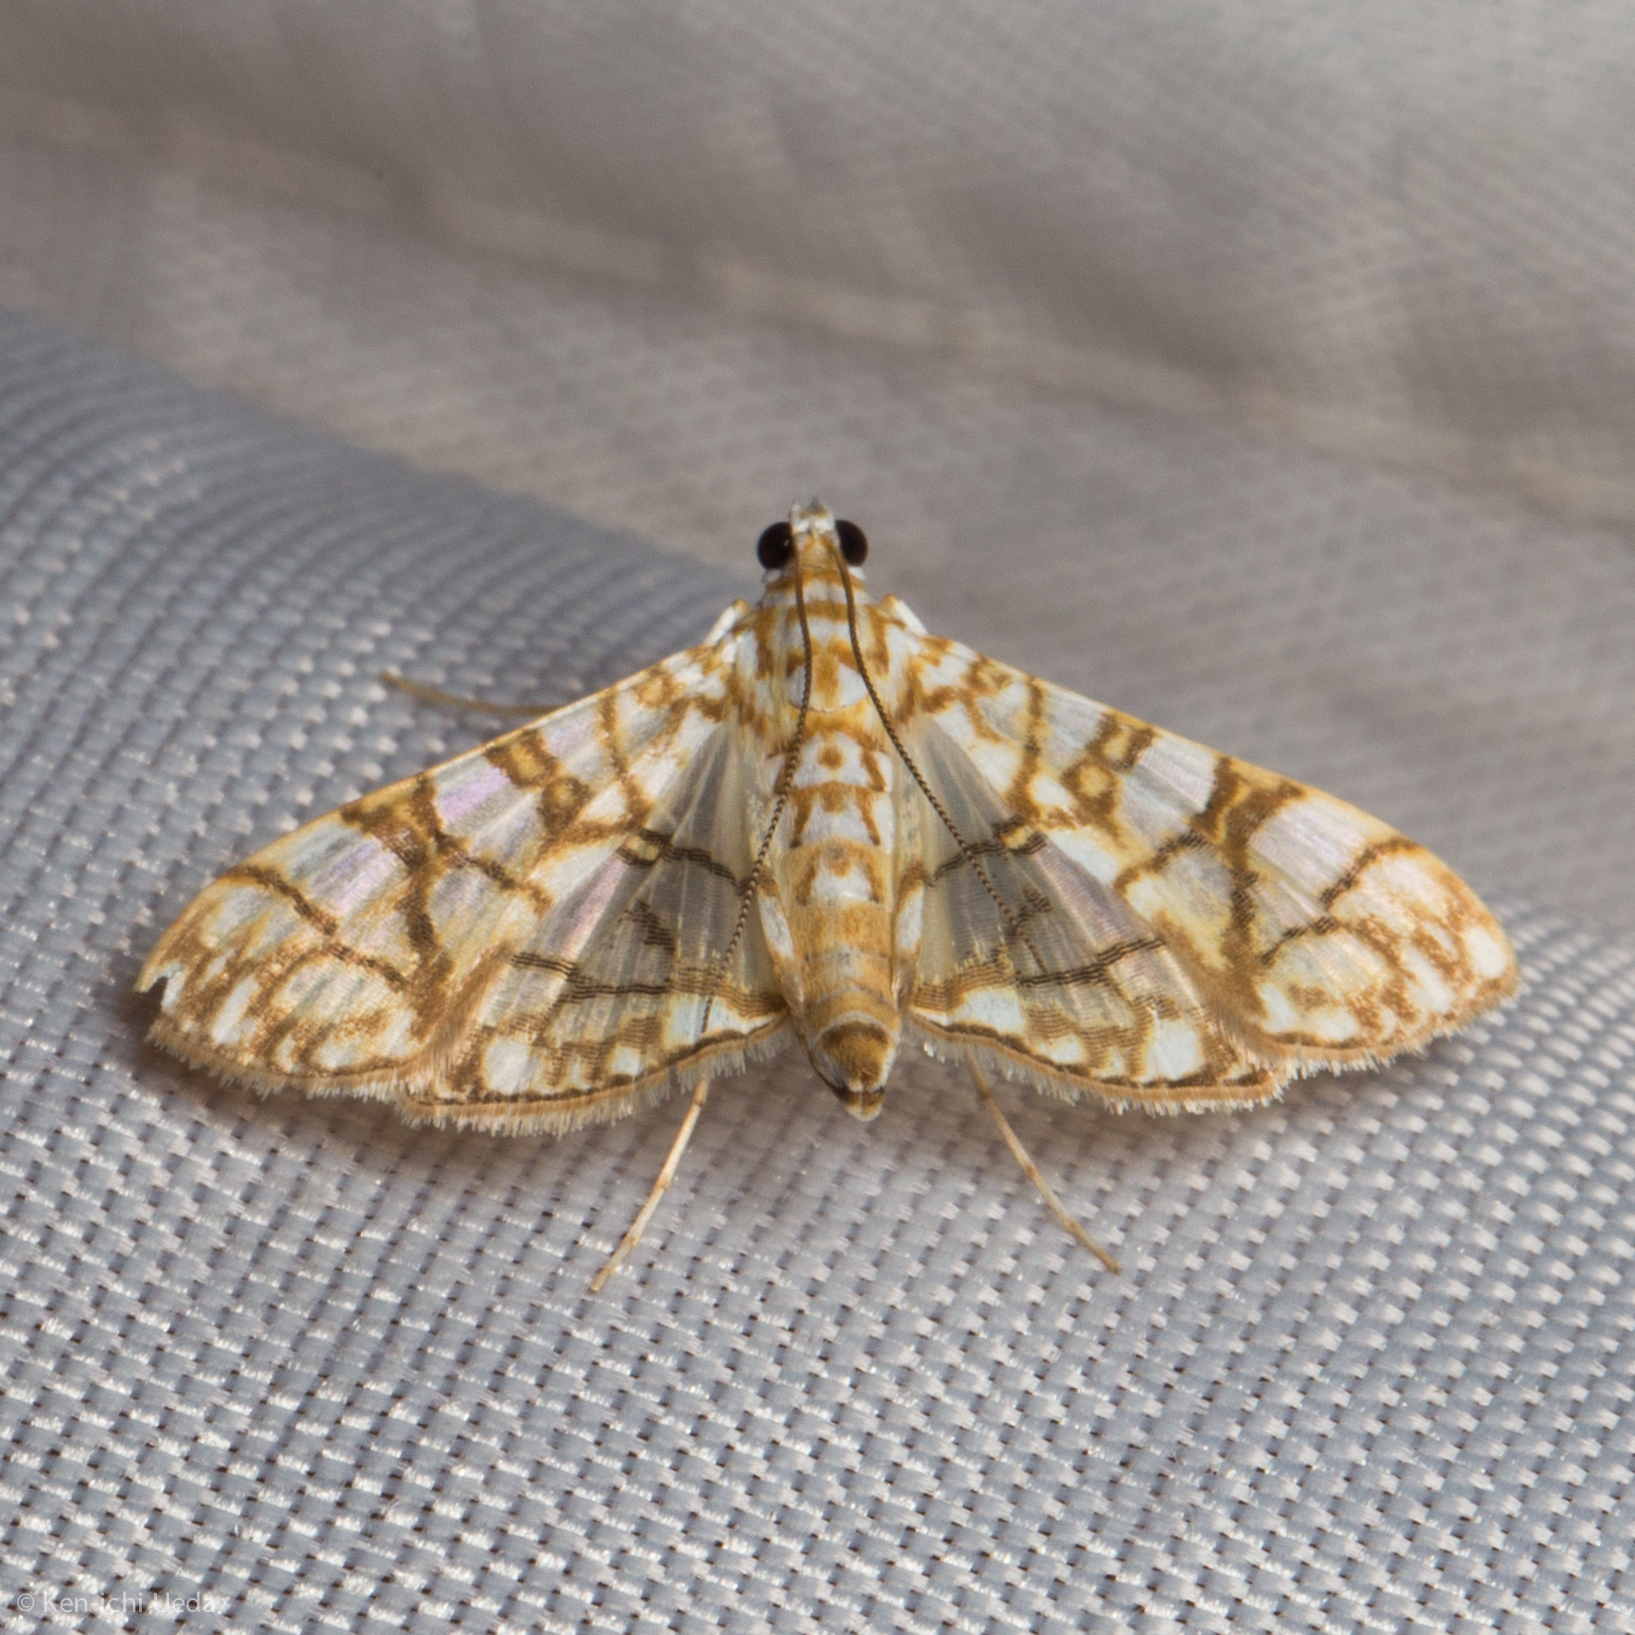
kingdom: Animalia
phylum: Arthropoda
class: Insecta
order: Lepidoptera
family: Crambidae
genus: Synclera
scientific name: Synclera traducalis
